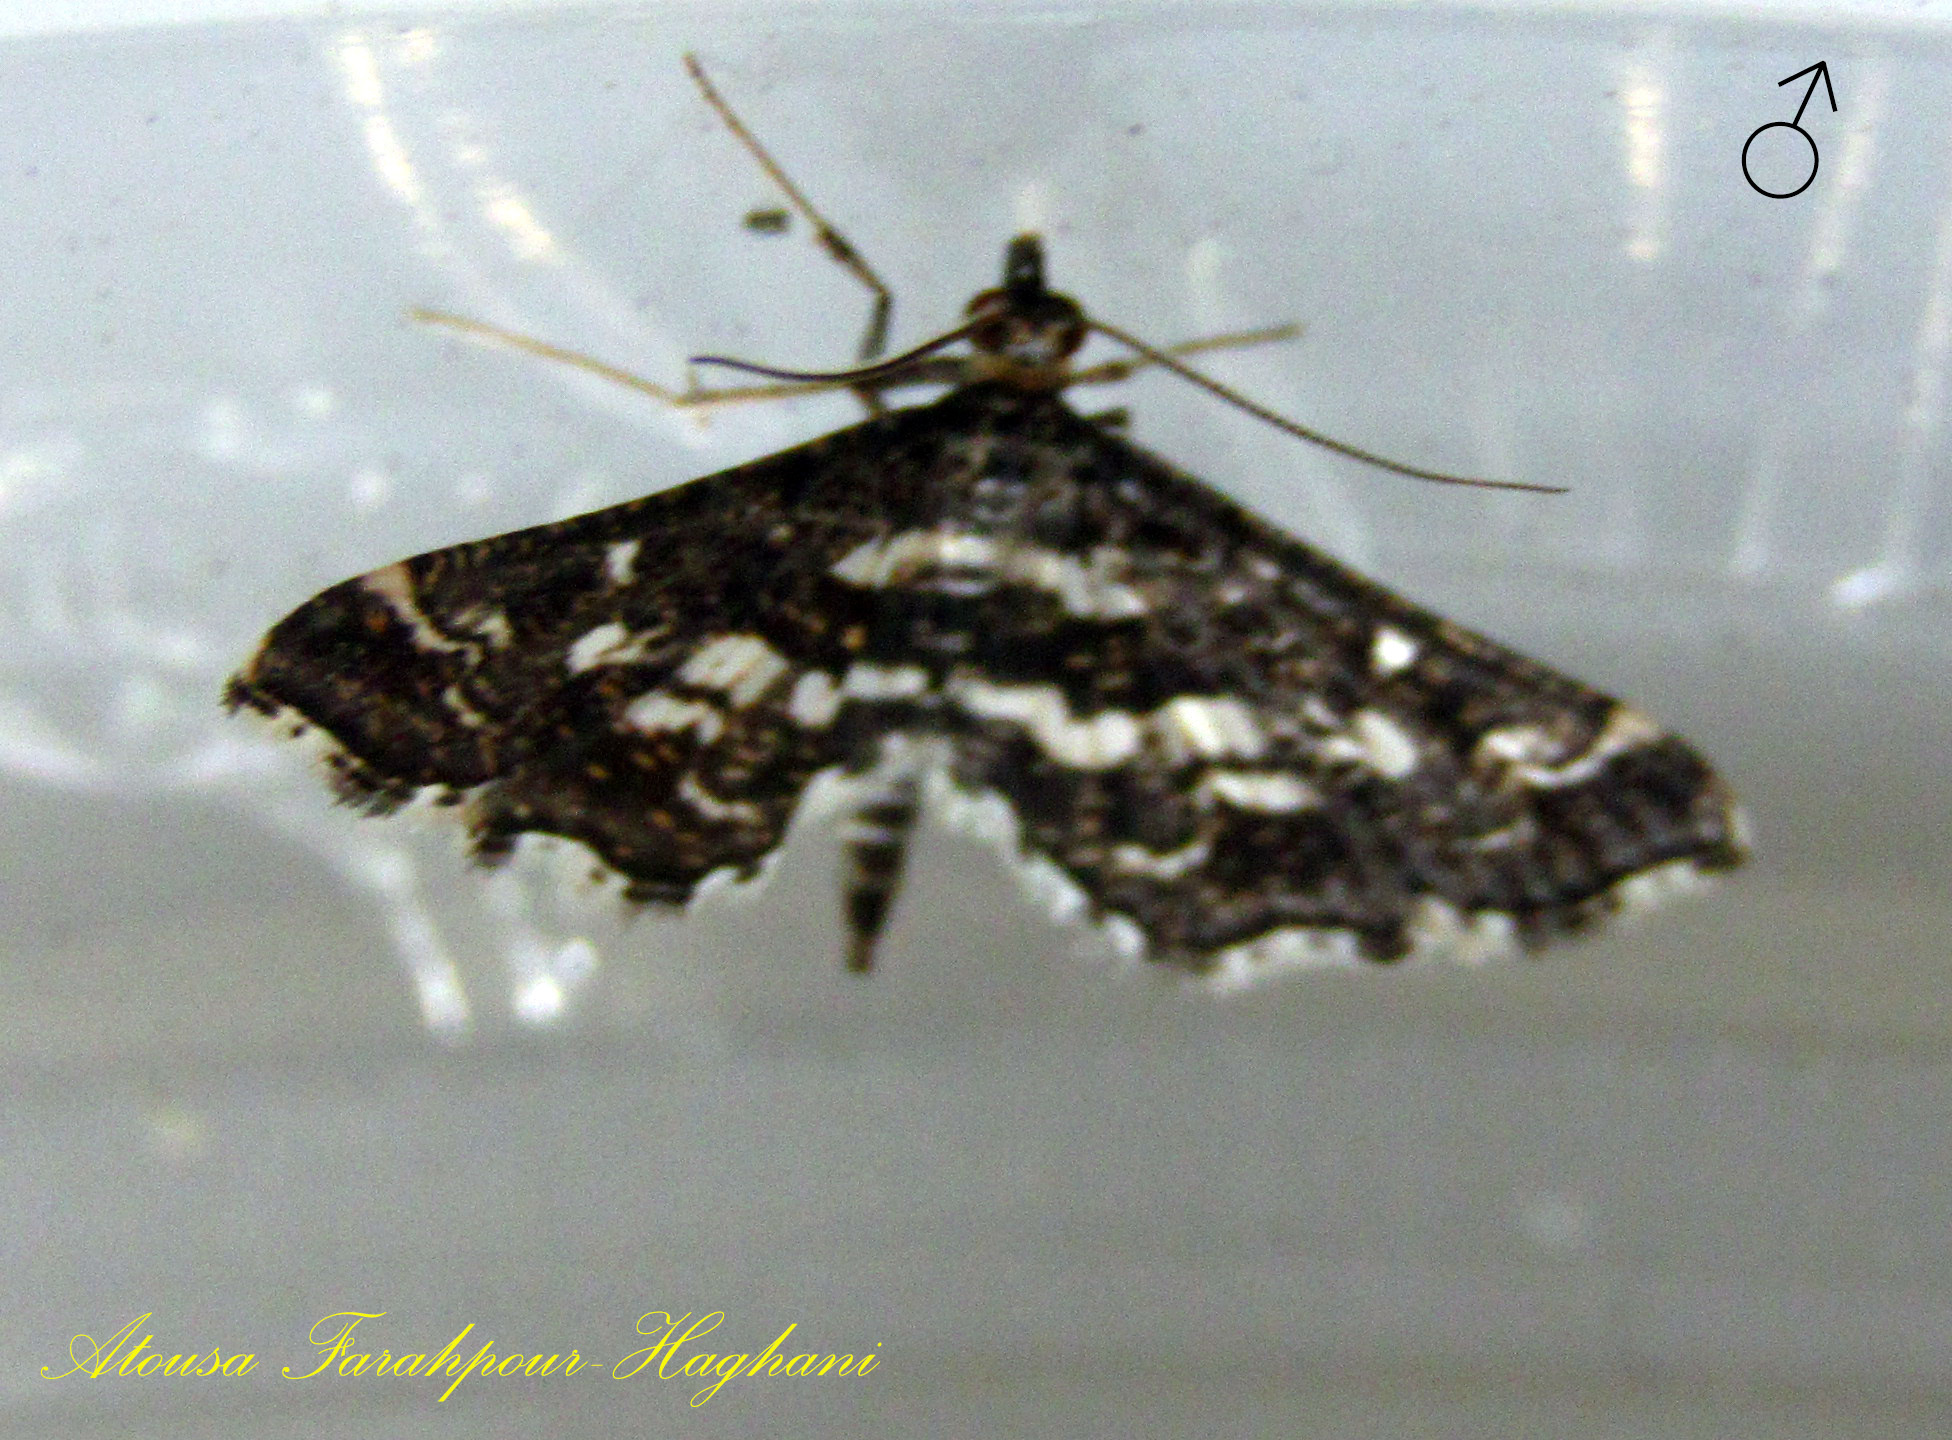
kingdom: Animalia
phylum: Arthropoda
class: Insecta
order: Lepidoptera
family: Crambidae
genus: Diasemiopsis
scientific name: Diasemiopsis ramburialis
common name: Vagrant china-mark
